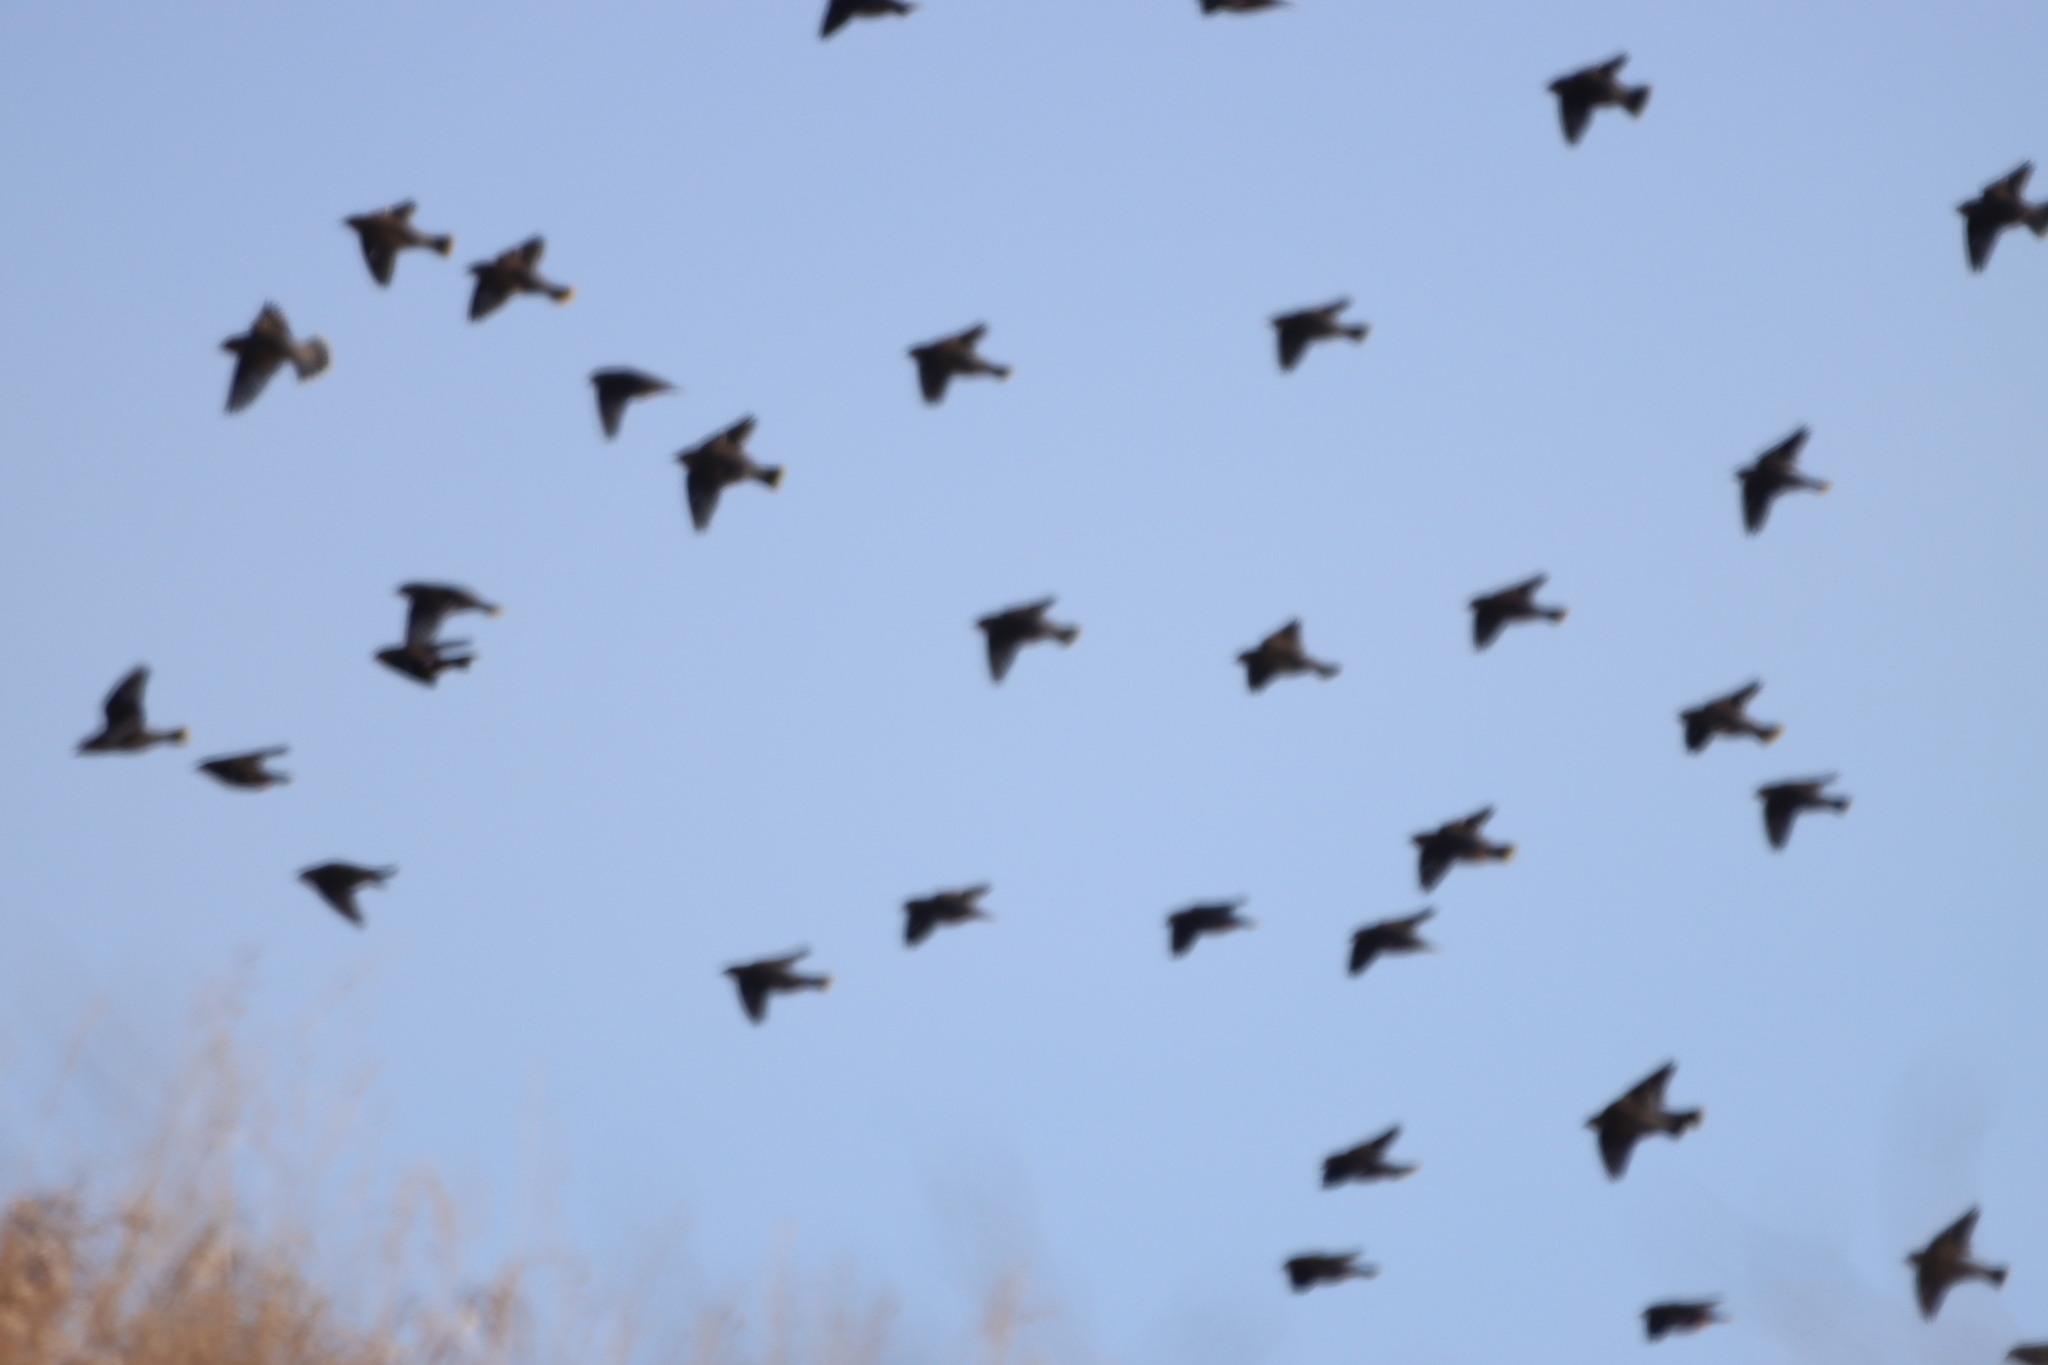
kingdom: Animalia
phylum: Chordata
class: Aves
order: Passeriformes
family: Bombycillidae
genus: Bombycilla
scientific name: Bombycilla garrulus
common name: Bohemian waxwing
